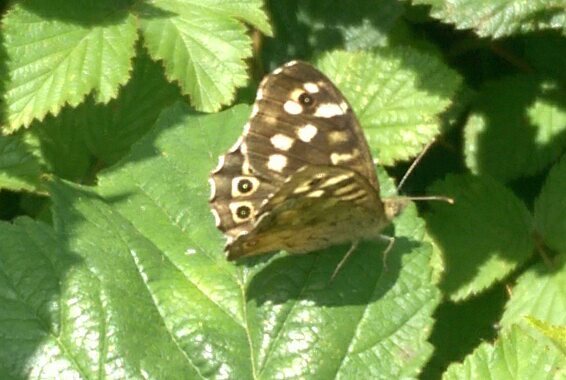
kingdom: Animalia
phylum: Arthropoda
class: Insecta
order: Lepidoptera
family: Nymphalidae
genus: Pararge
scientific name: Pararge aegeria
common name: Speckled wood
